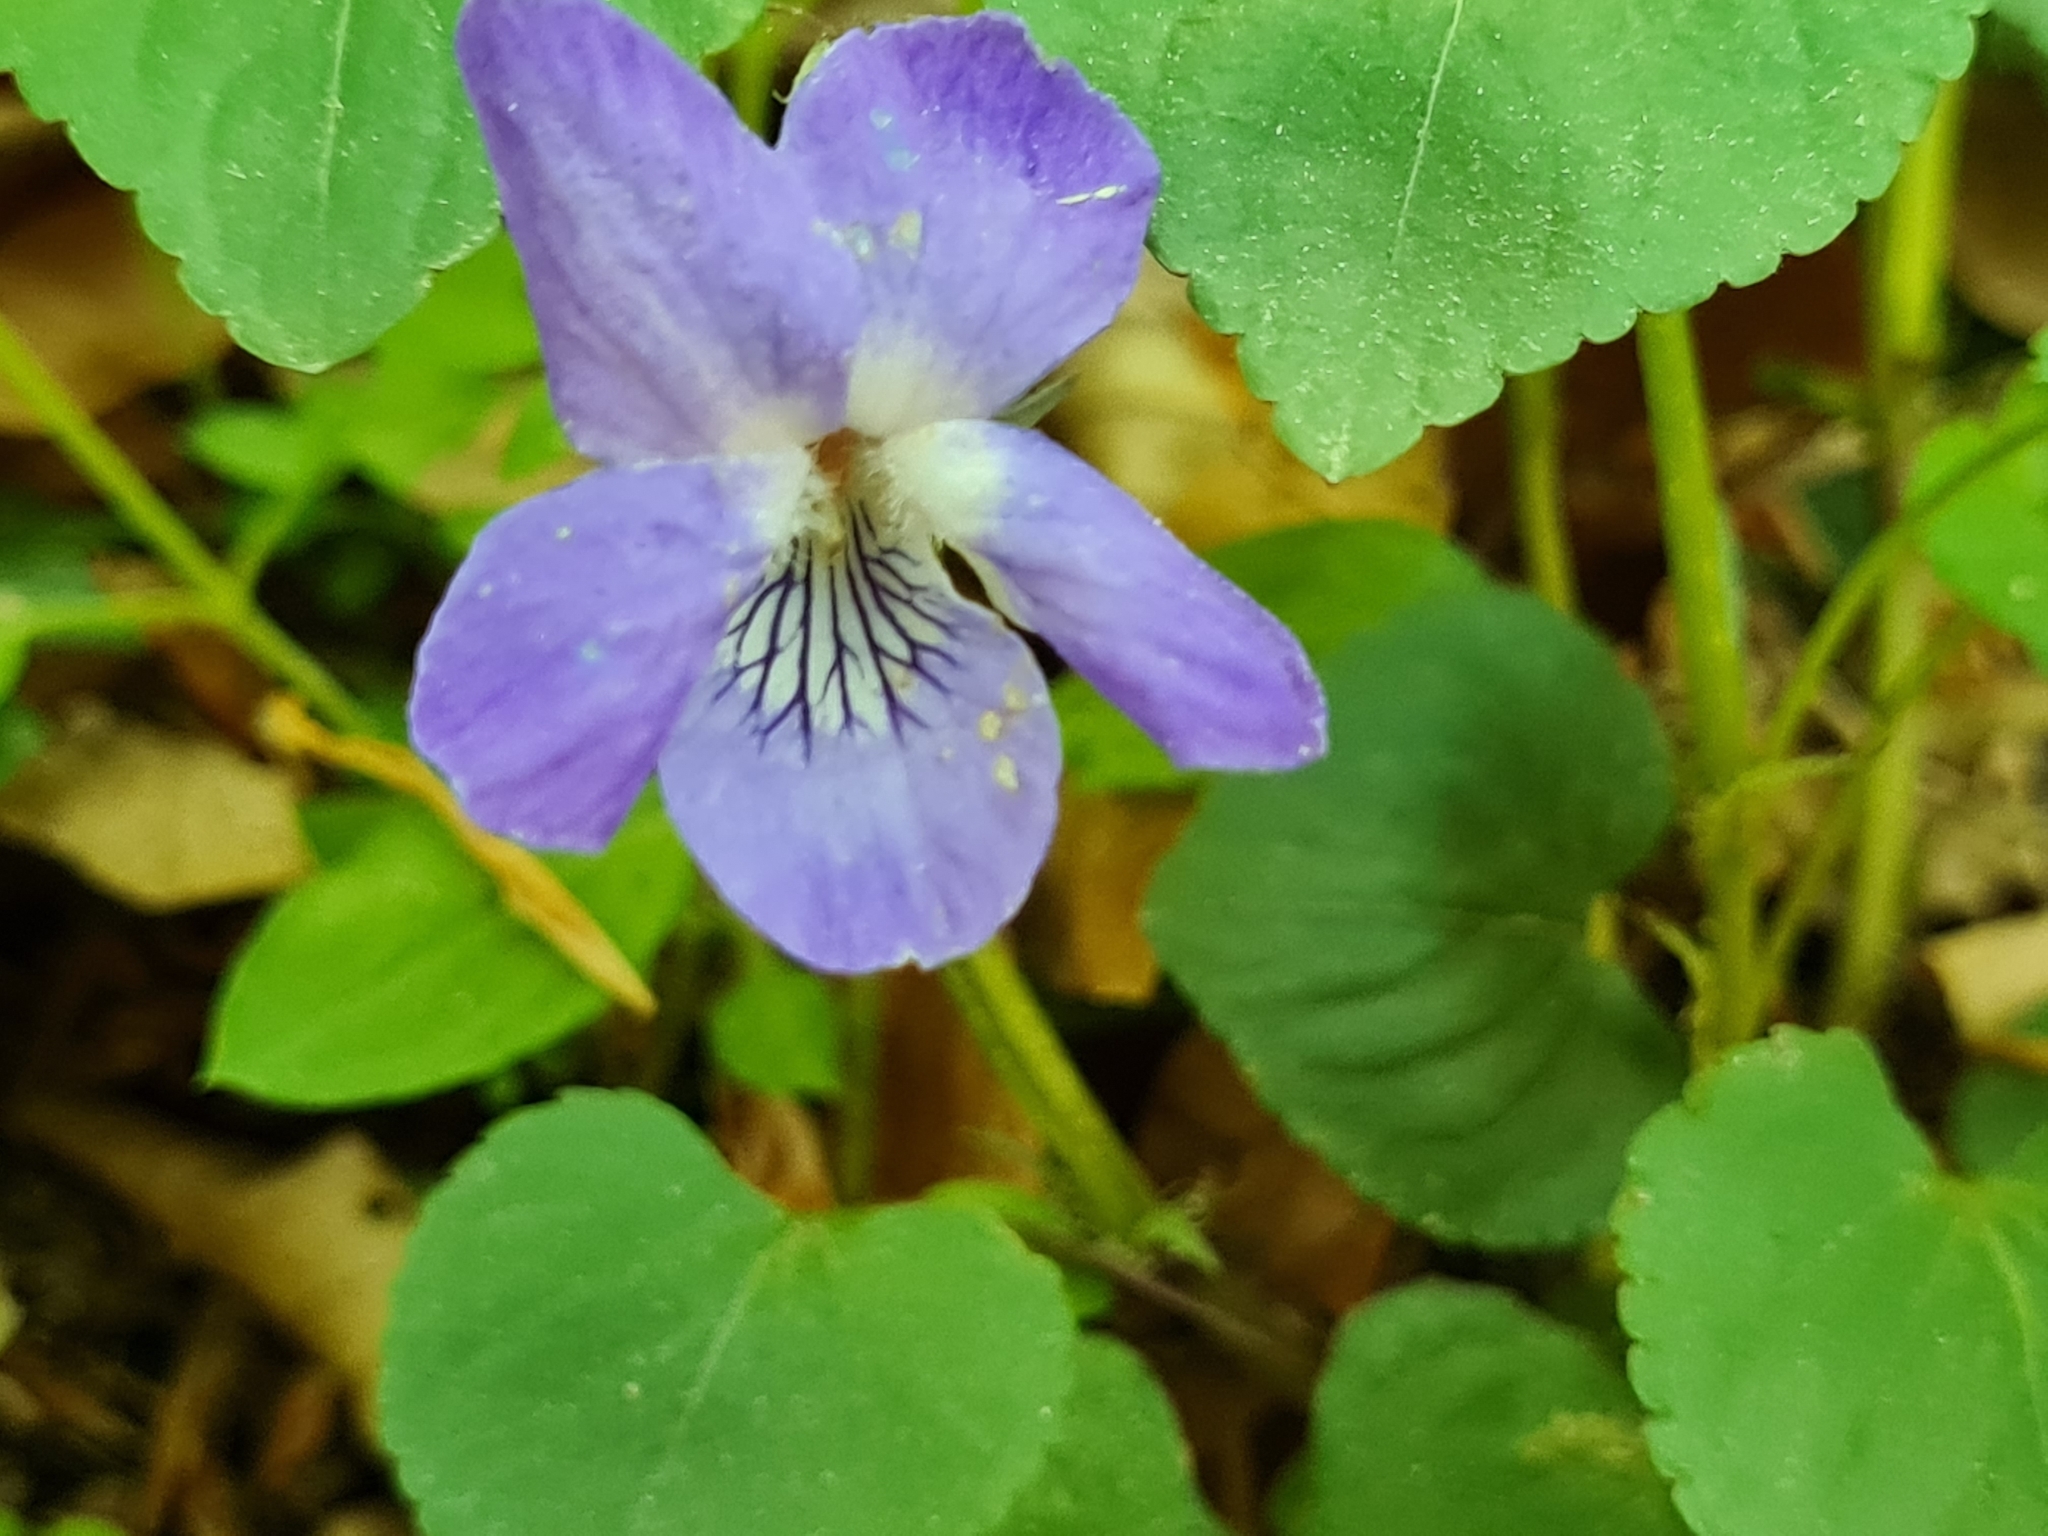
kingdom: Plantae
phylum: Tracheophyta
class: Magnoliopsida
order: Malpighiales
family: Violaceae
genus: Viola
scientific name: Viola riviniana
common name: Common dog-violet
